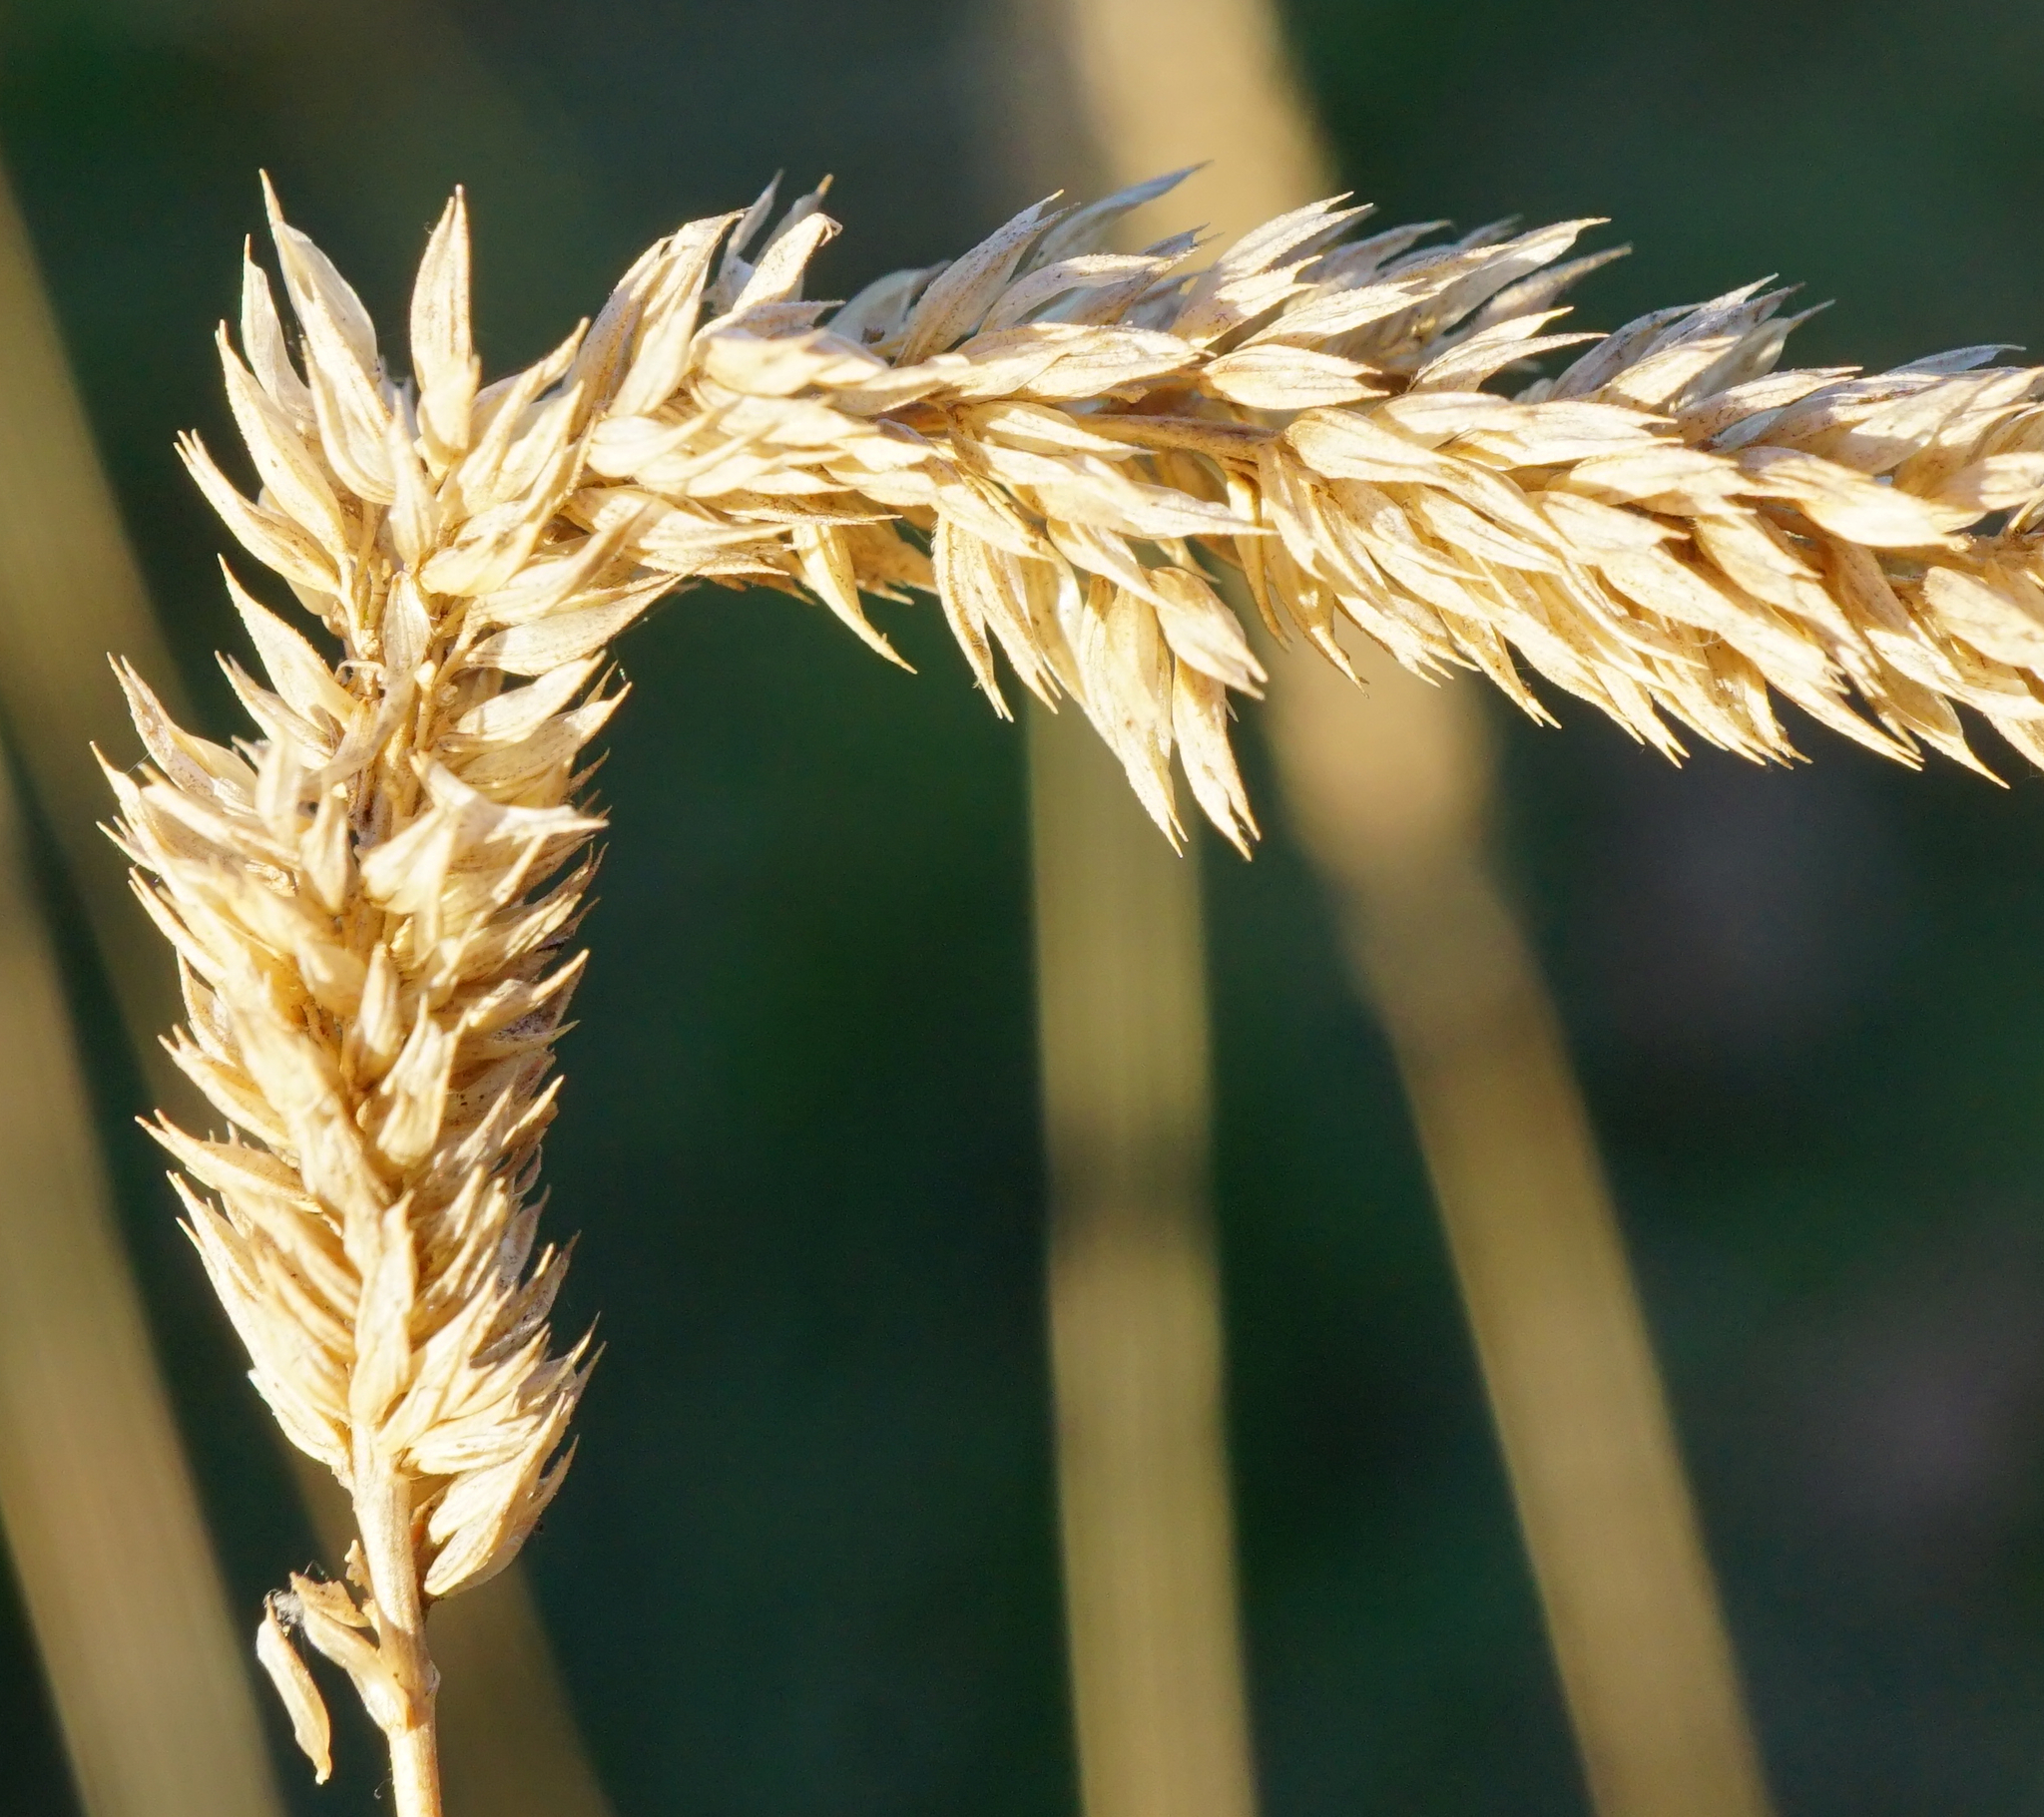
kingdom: Plantae
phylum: Tracheophyta
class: Liliopsida
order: Poales
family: Poaceae
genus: Phleum
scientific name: Phleum phleoides
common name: Purple-stem cat's-tail
